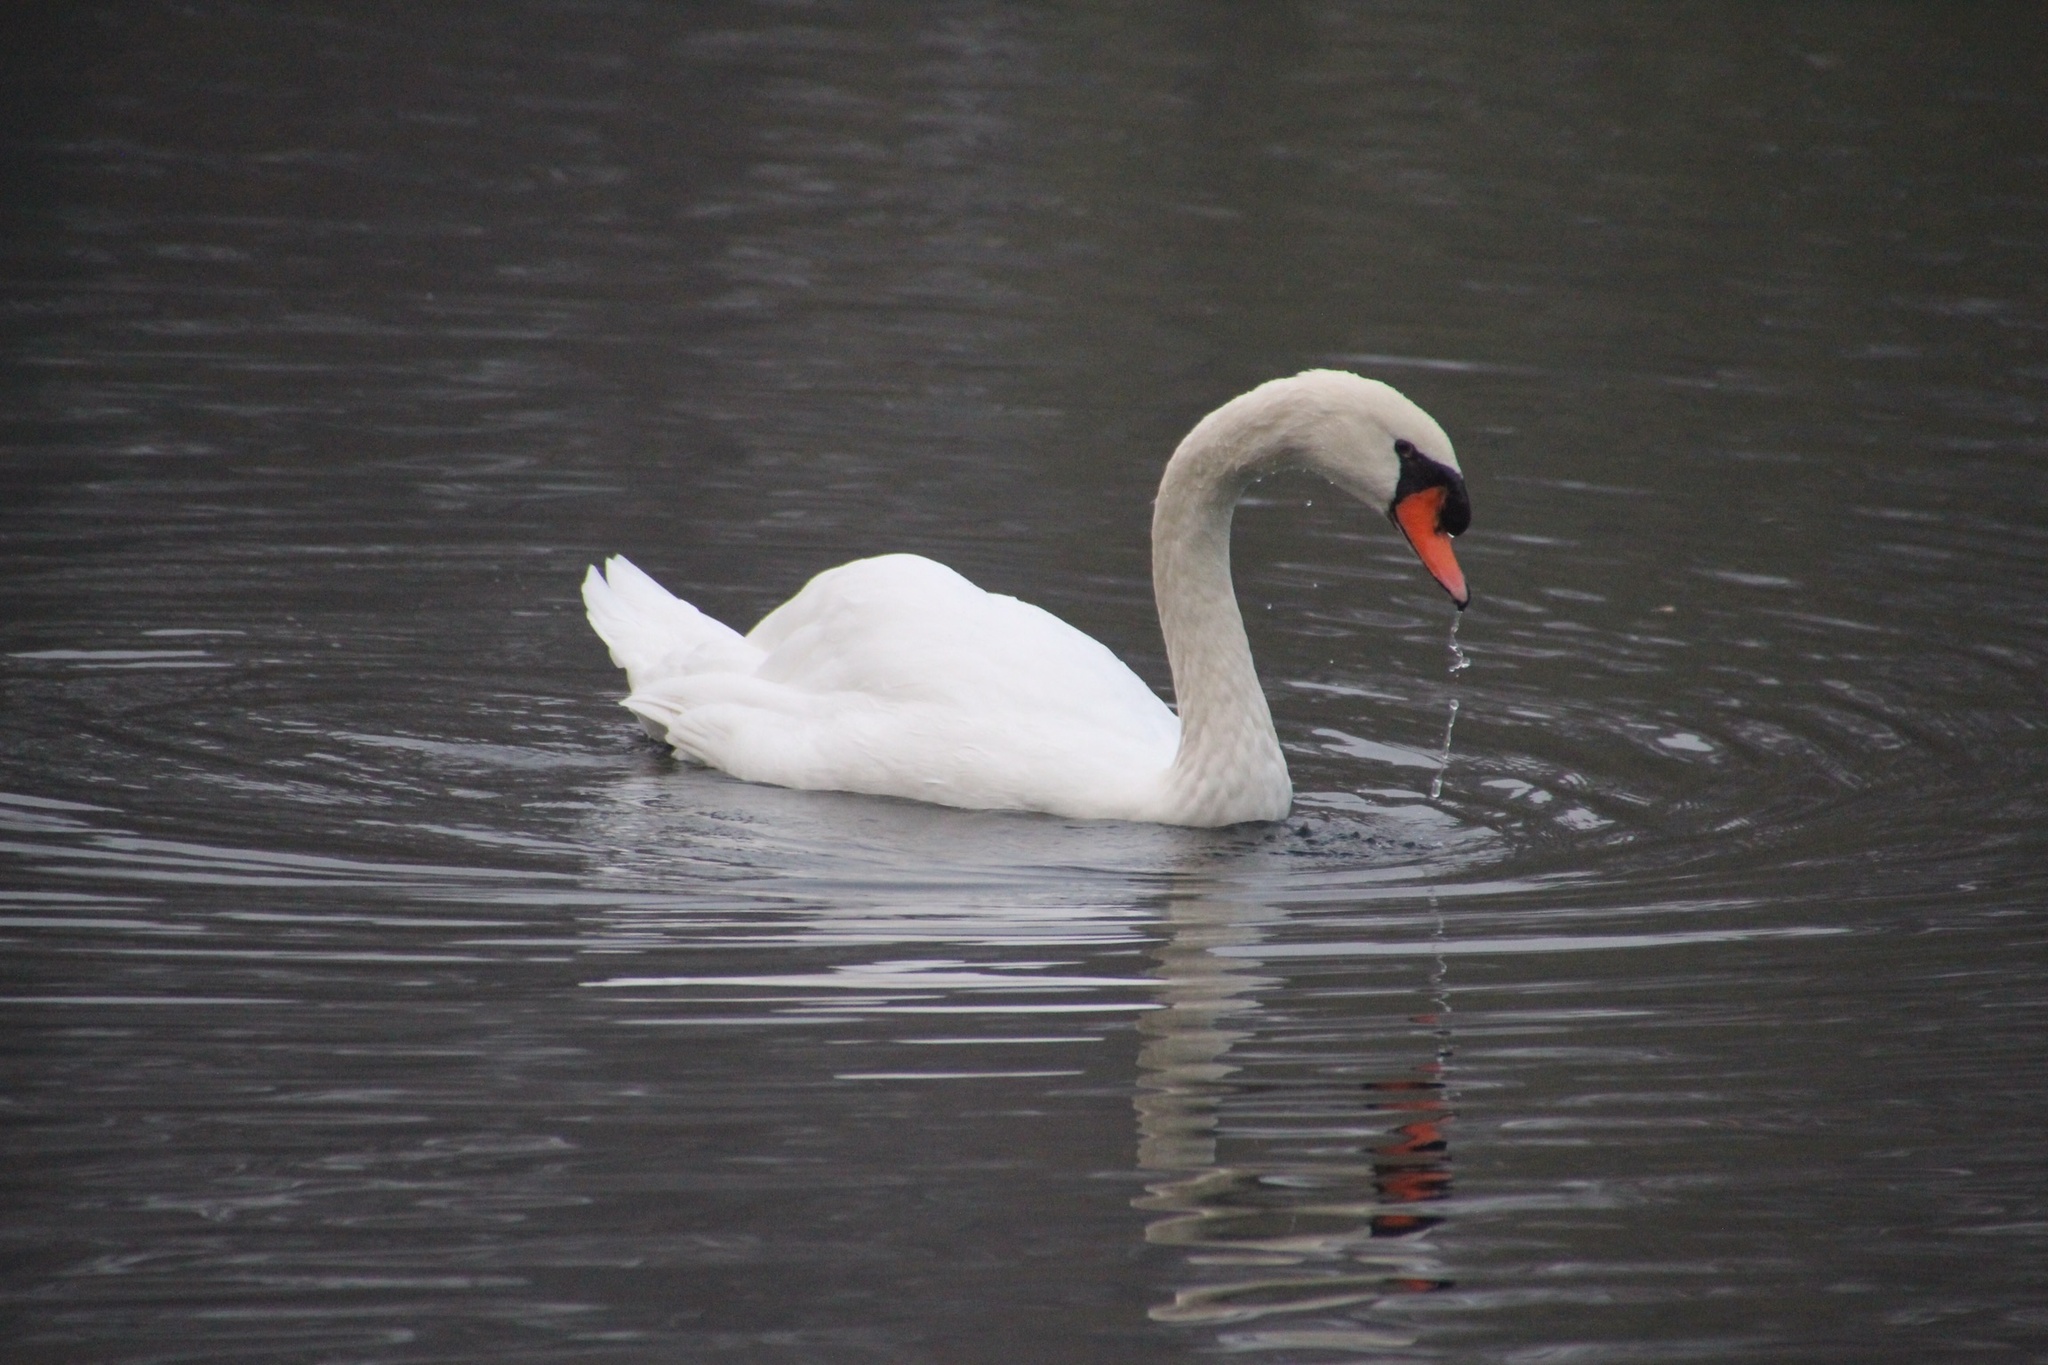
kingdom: Animalia
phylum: Chordata
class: Aves
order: Anseriformes
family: Anatidae
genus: Cygnus
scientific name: Cygnus olor
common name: Mute swan
